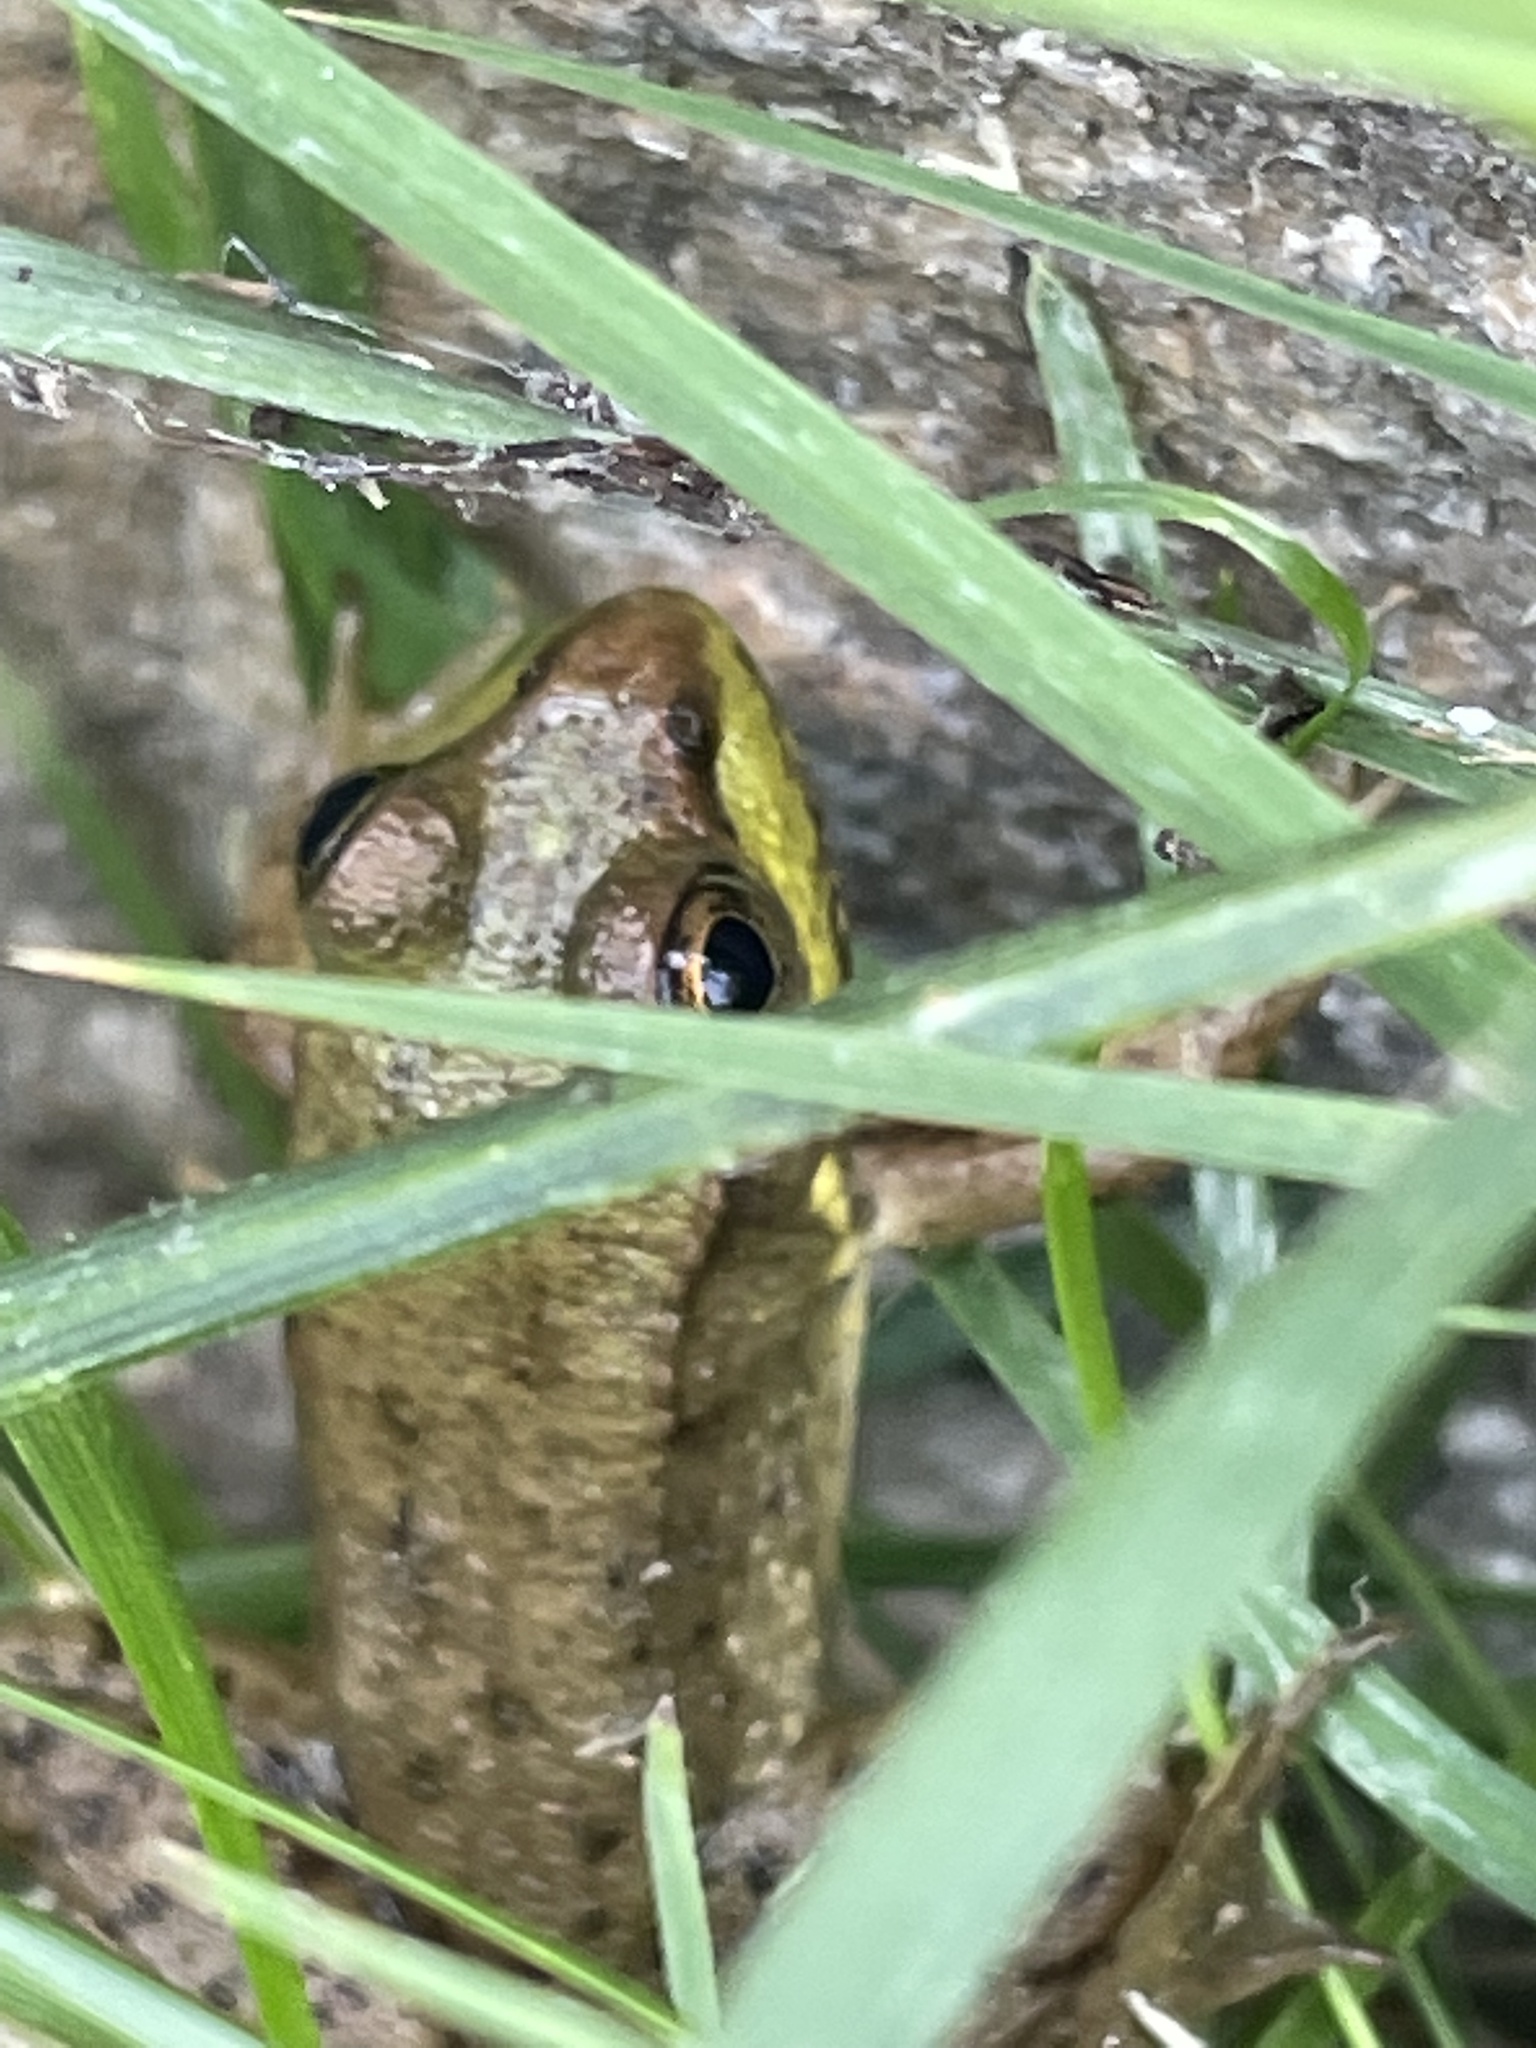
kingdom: Animalia
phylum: Chordata
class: Amphibia
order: Anura
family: Ranidae
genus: Lithobates
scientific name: Lithobates clamitans
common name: Green frog
